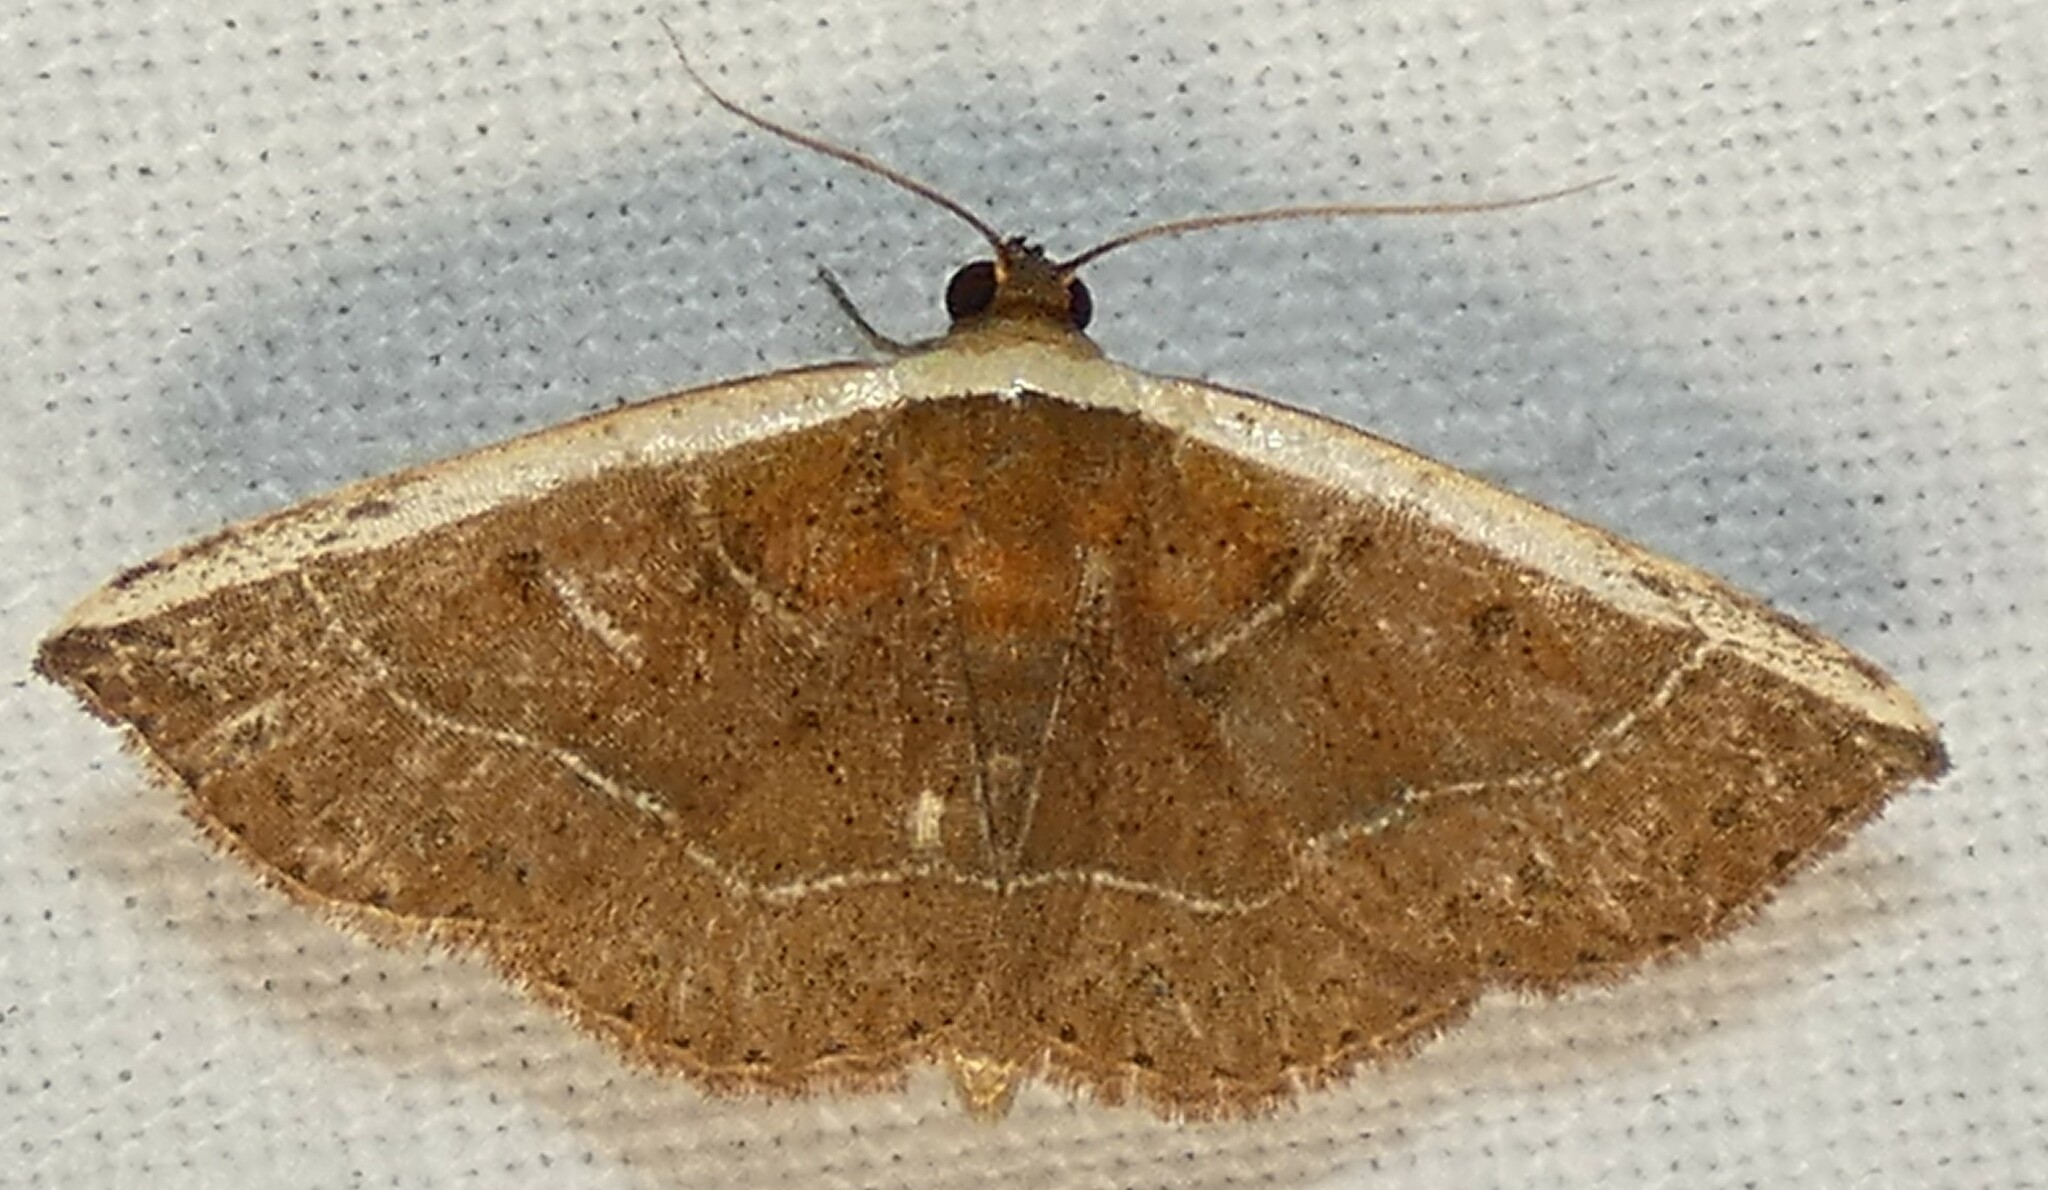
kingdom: Animalia
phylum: Arthropoda
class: Insecta
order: Lepidoptera
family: Noctuidae
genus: Ozarba
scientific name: Ozarba albocostaliata
